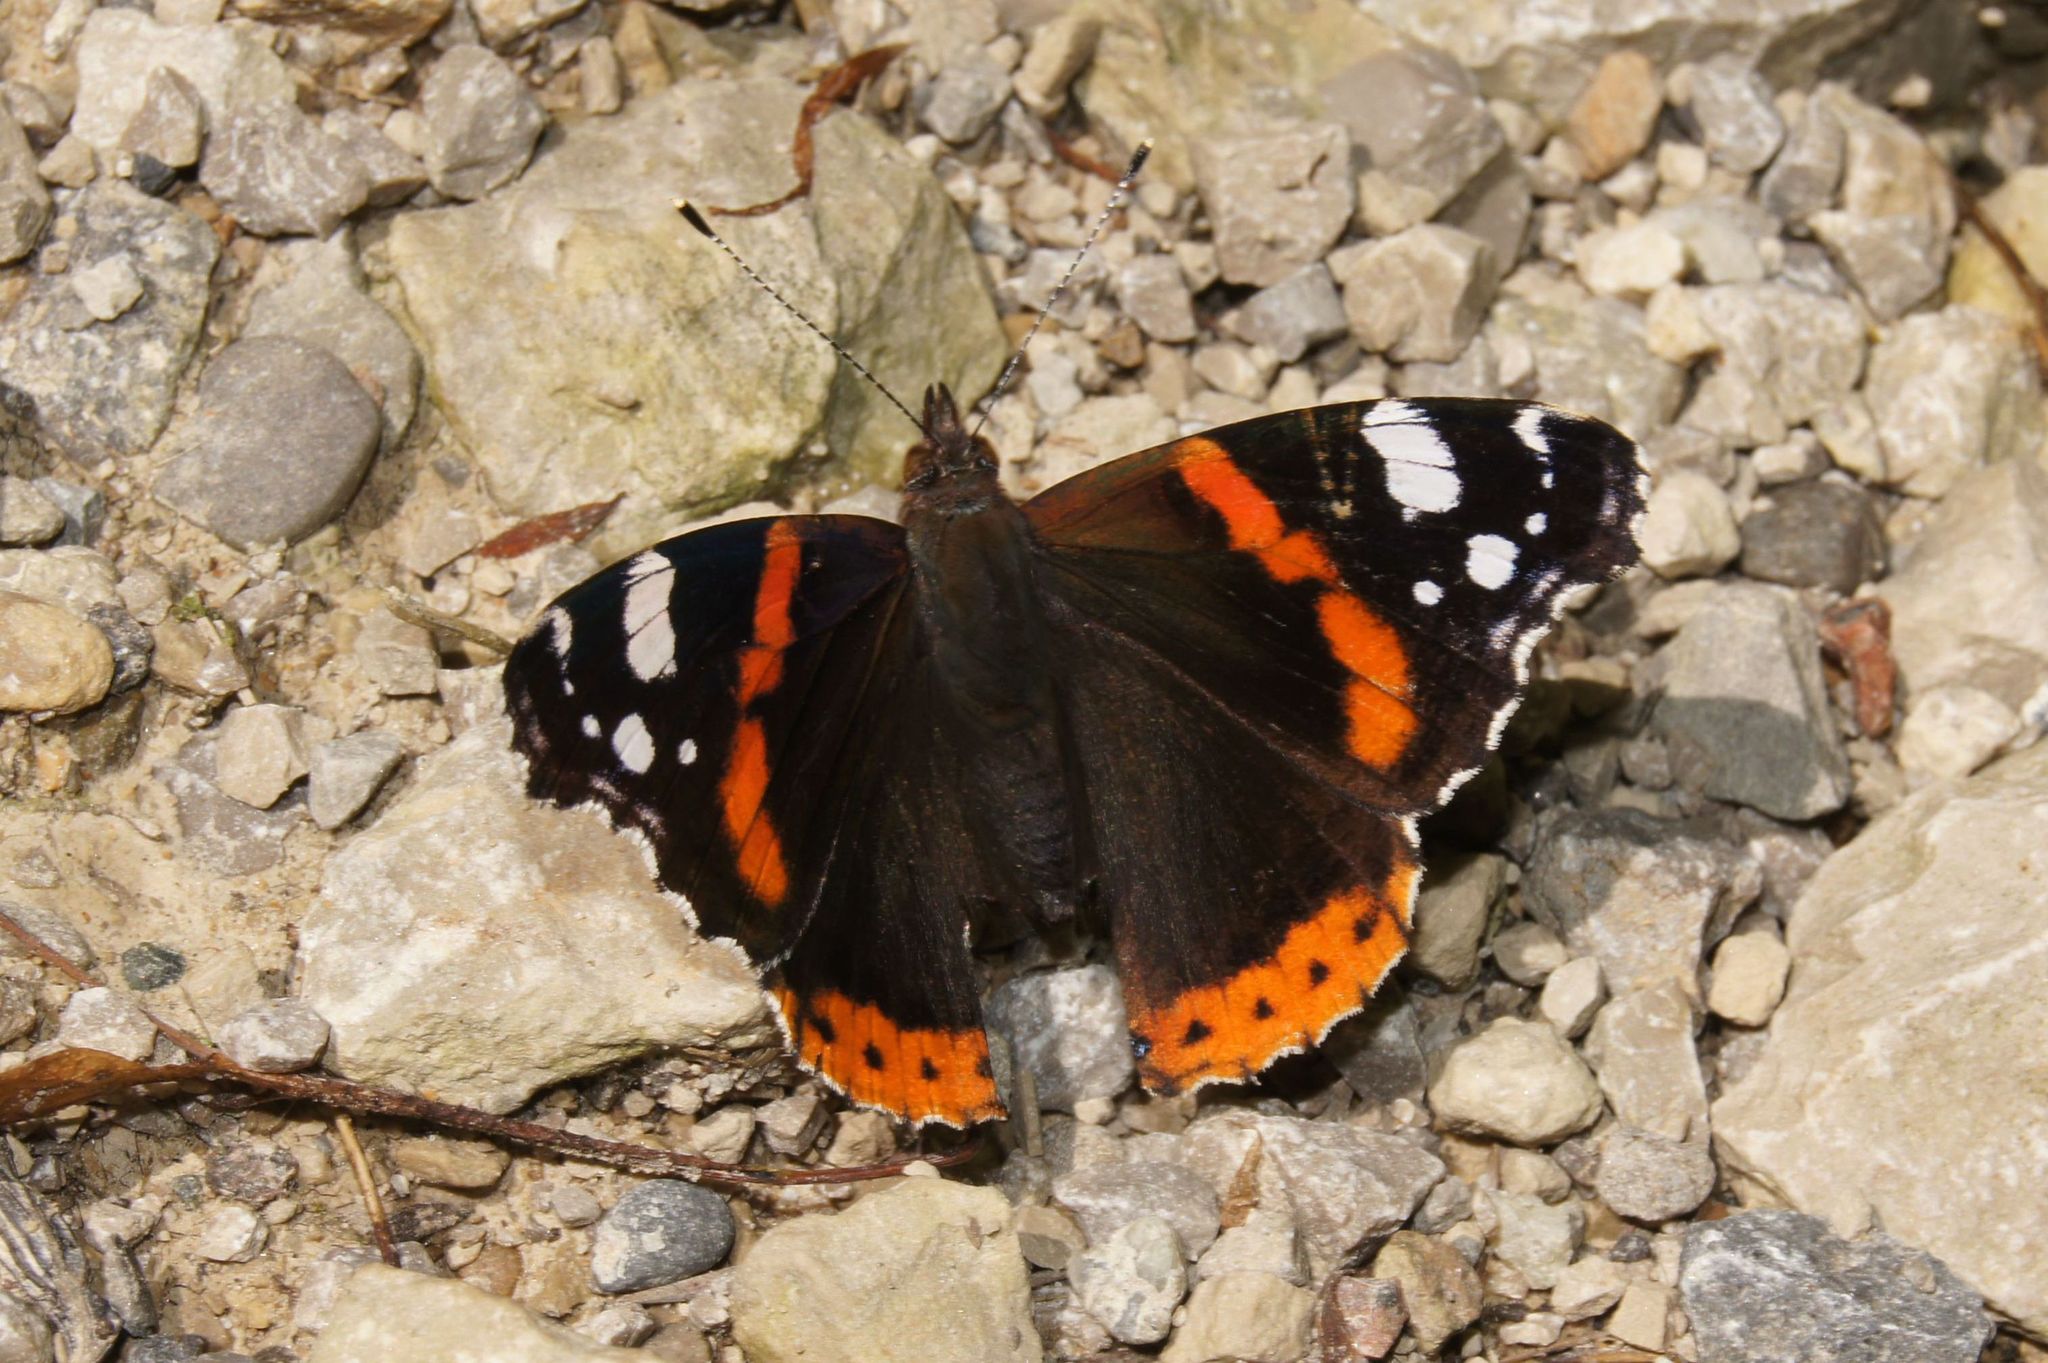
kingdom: Animalia
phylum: Arthropoda
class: Insecta
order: Lepidoptera
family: Nymphalidae
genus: Vanessa
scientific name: Vanessa atalanta
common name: Red admiral
